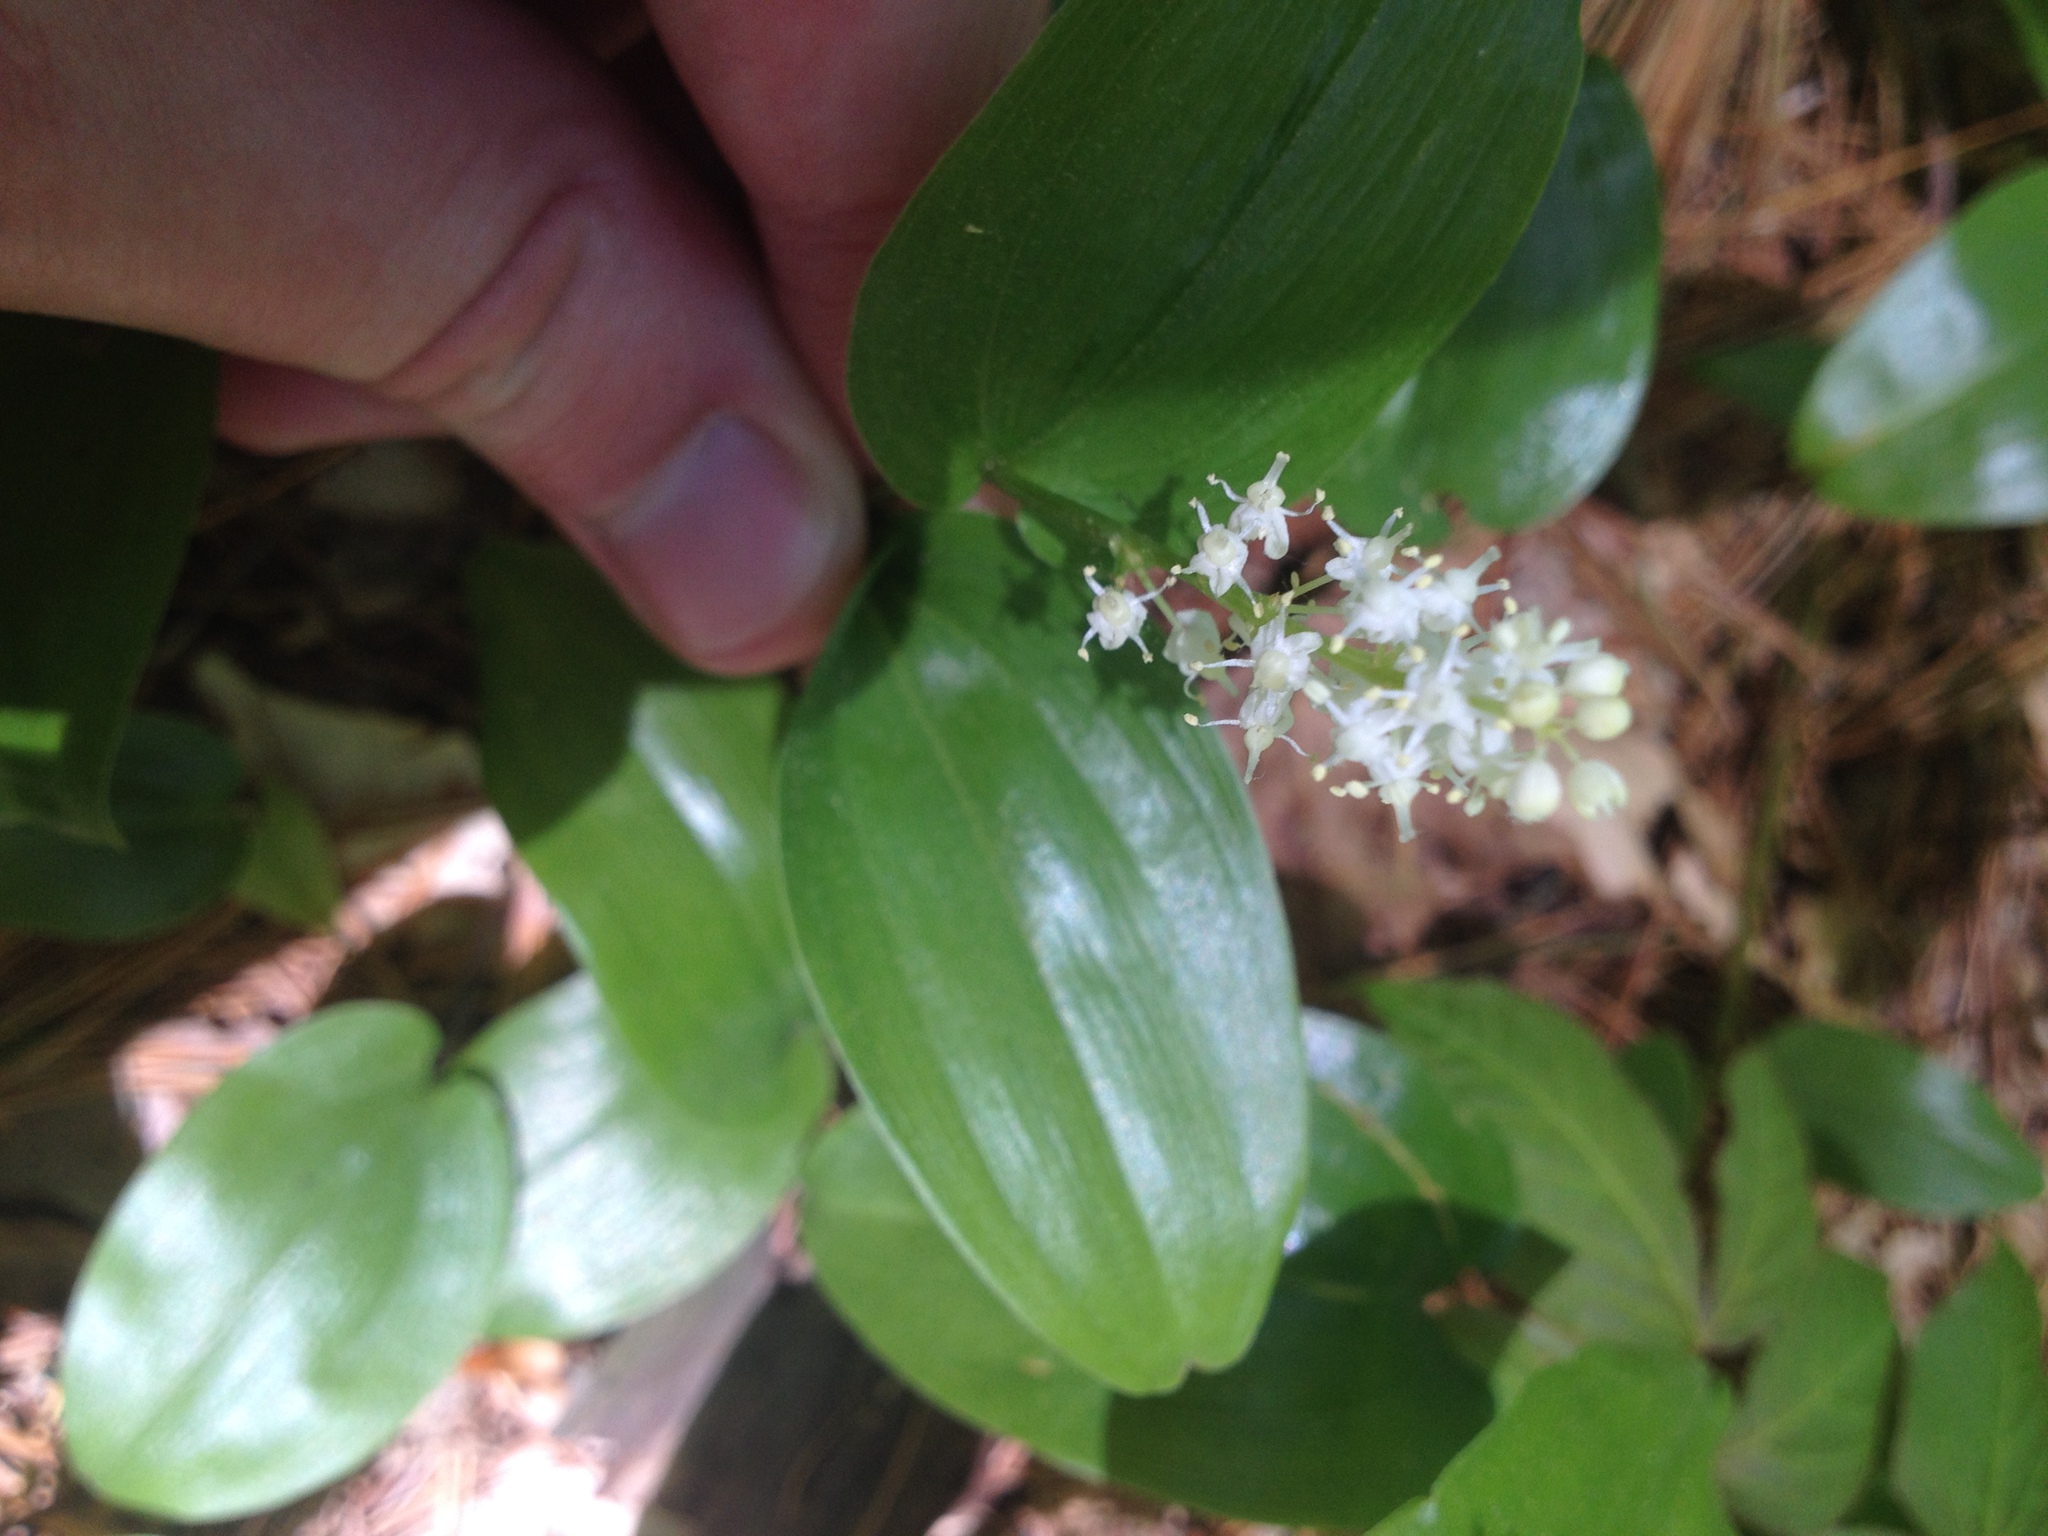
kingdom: Plantae
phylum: Tracheophyta
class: Liliopsida
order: Asparagales
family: Asparagaceae
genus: Maianthemum
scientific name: Maianthemum canadense
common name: False lily-of-the-valley
